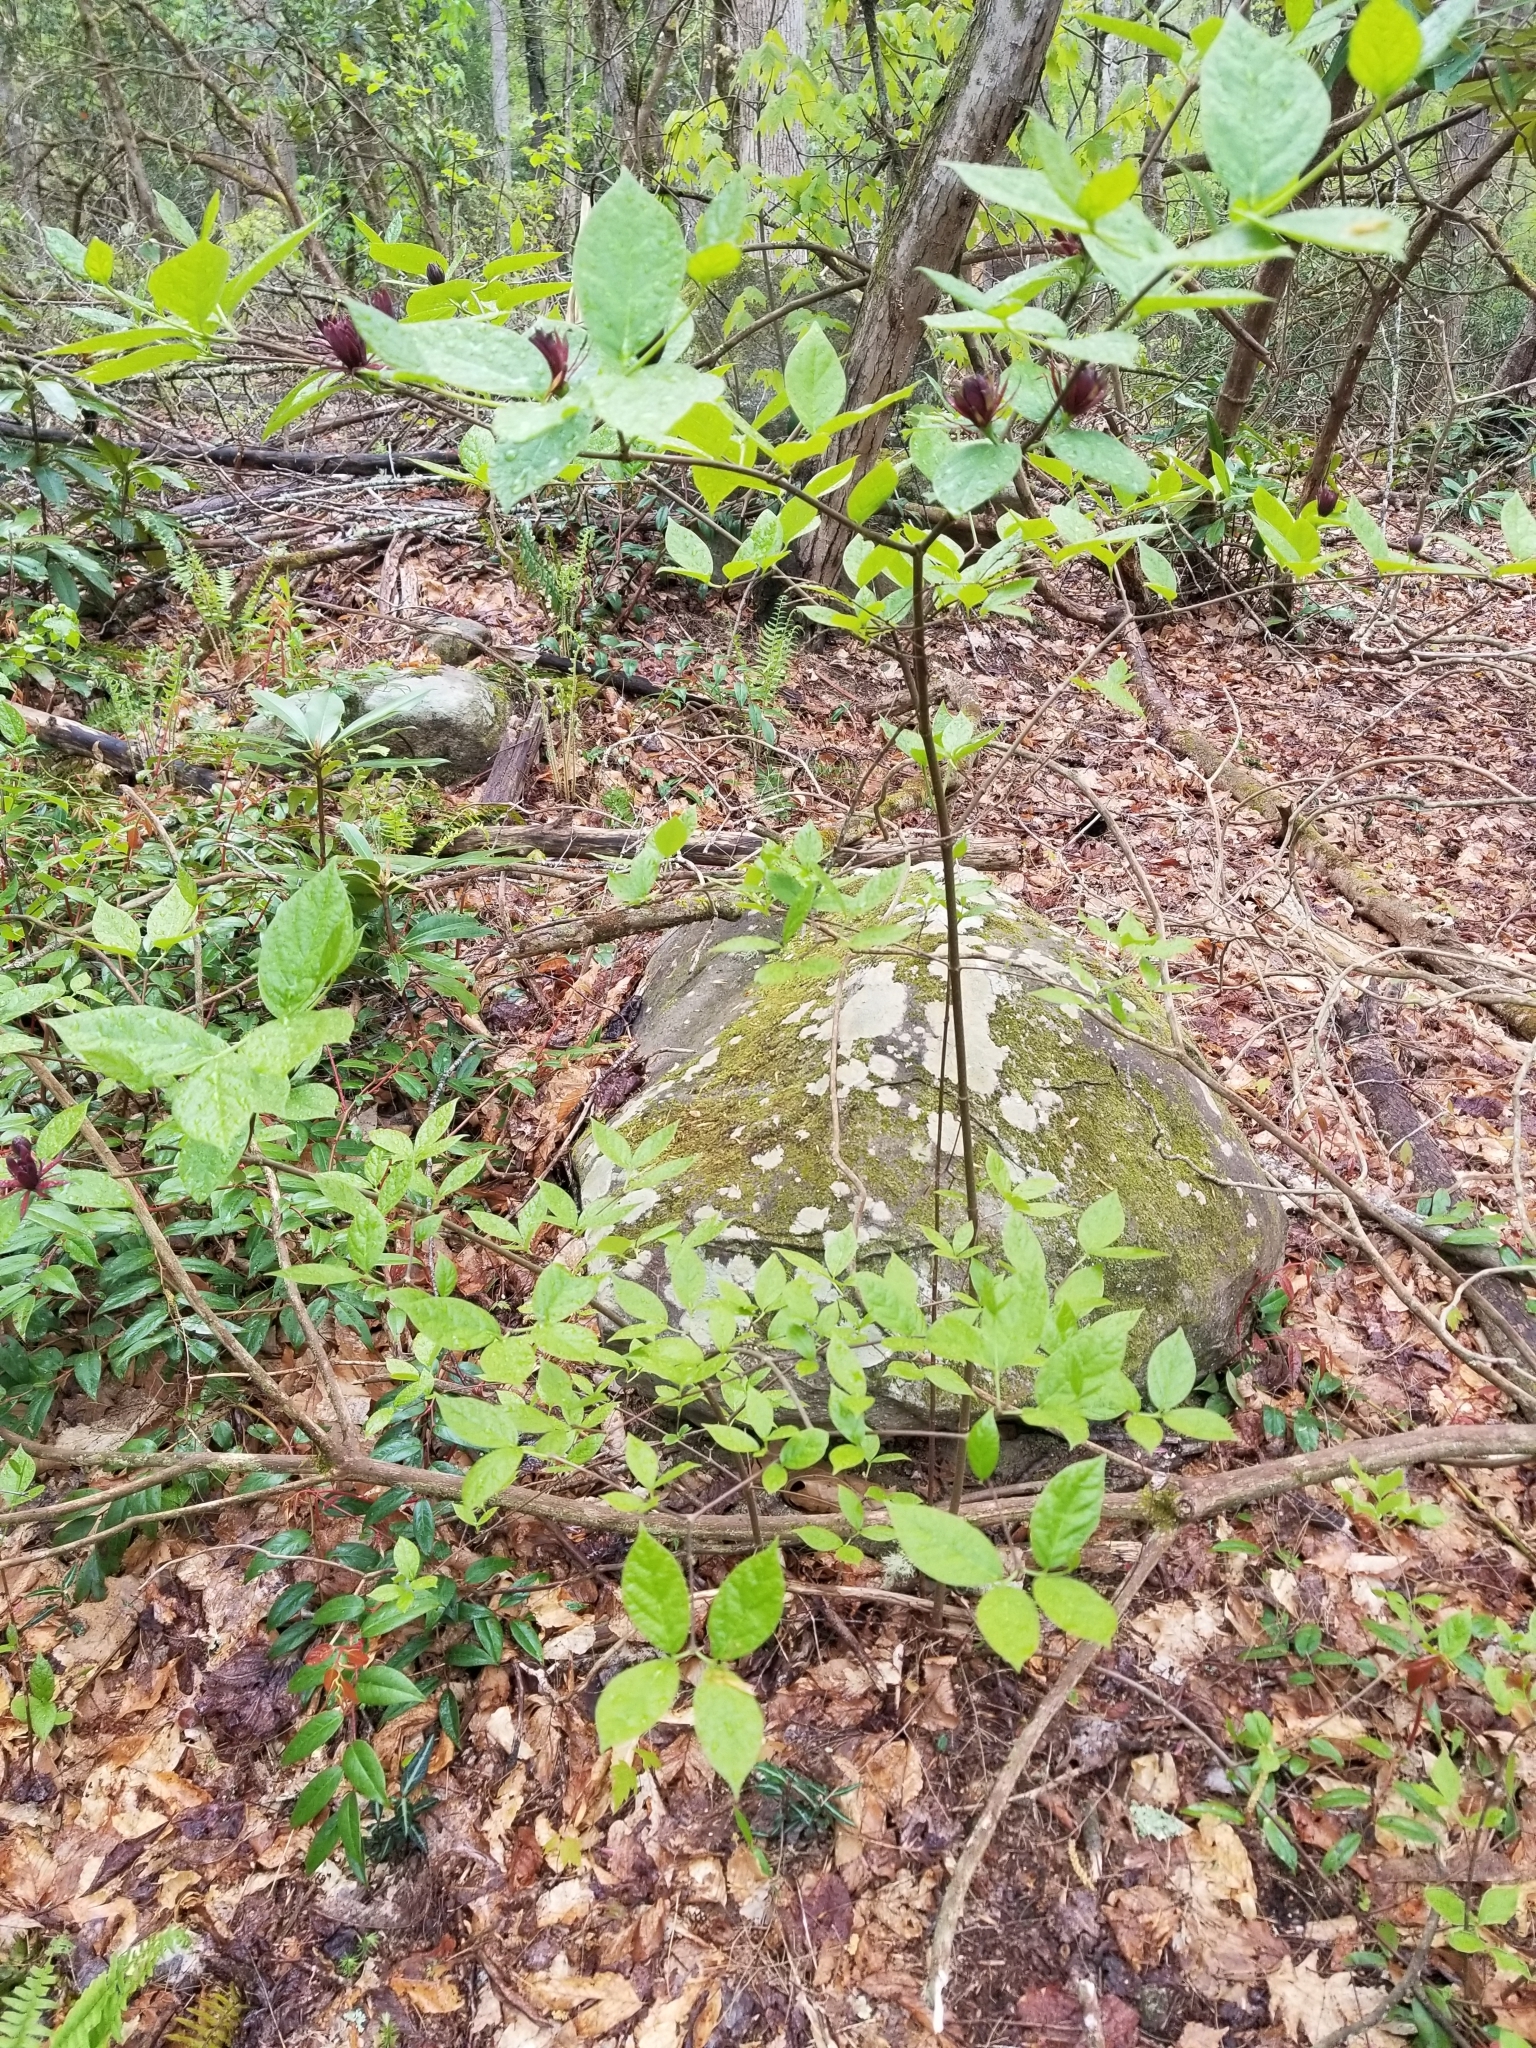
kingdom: Plantae
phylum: Tracheophyta
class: Magnoliopsida
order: Laurales
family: Calycanthaceae
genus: Calycanthus
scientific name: Calycanthus floridus
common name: Carolina-allspice
